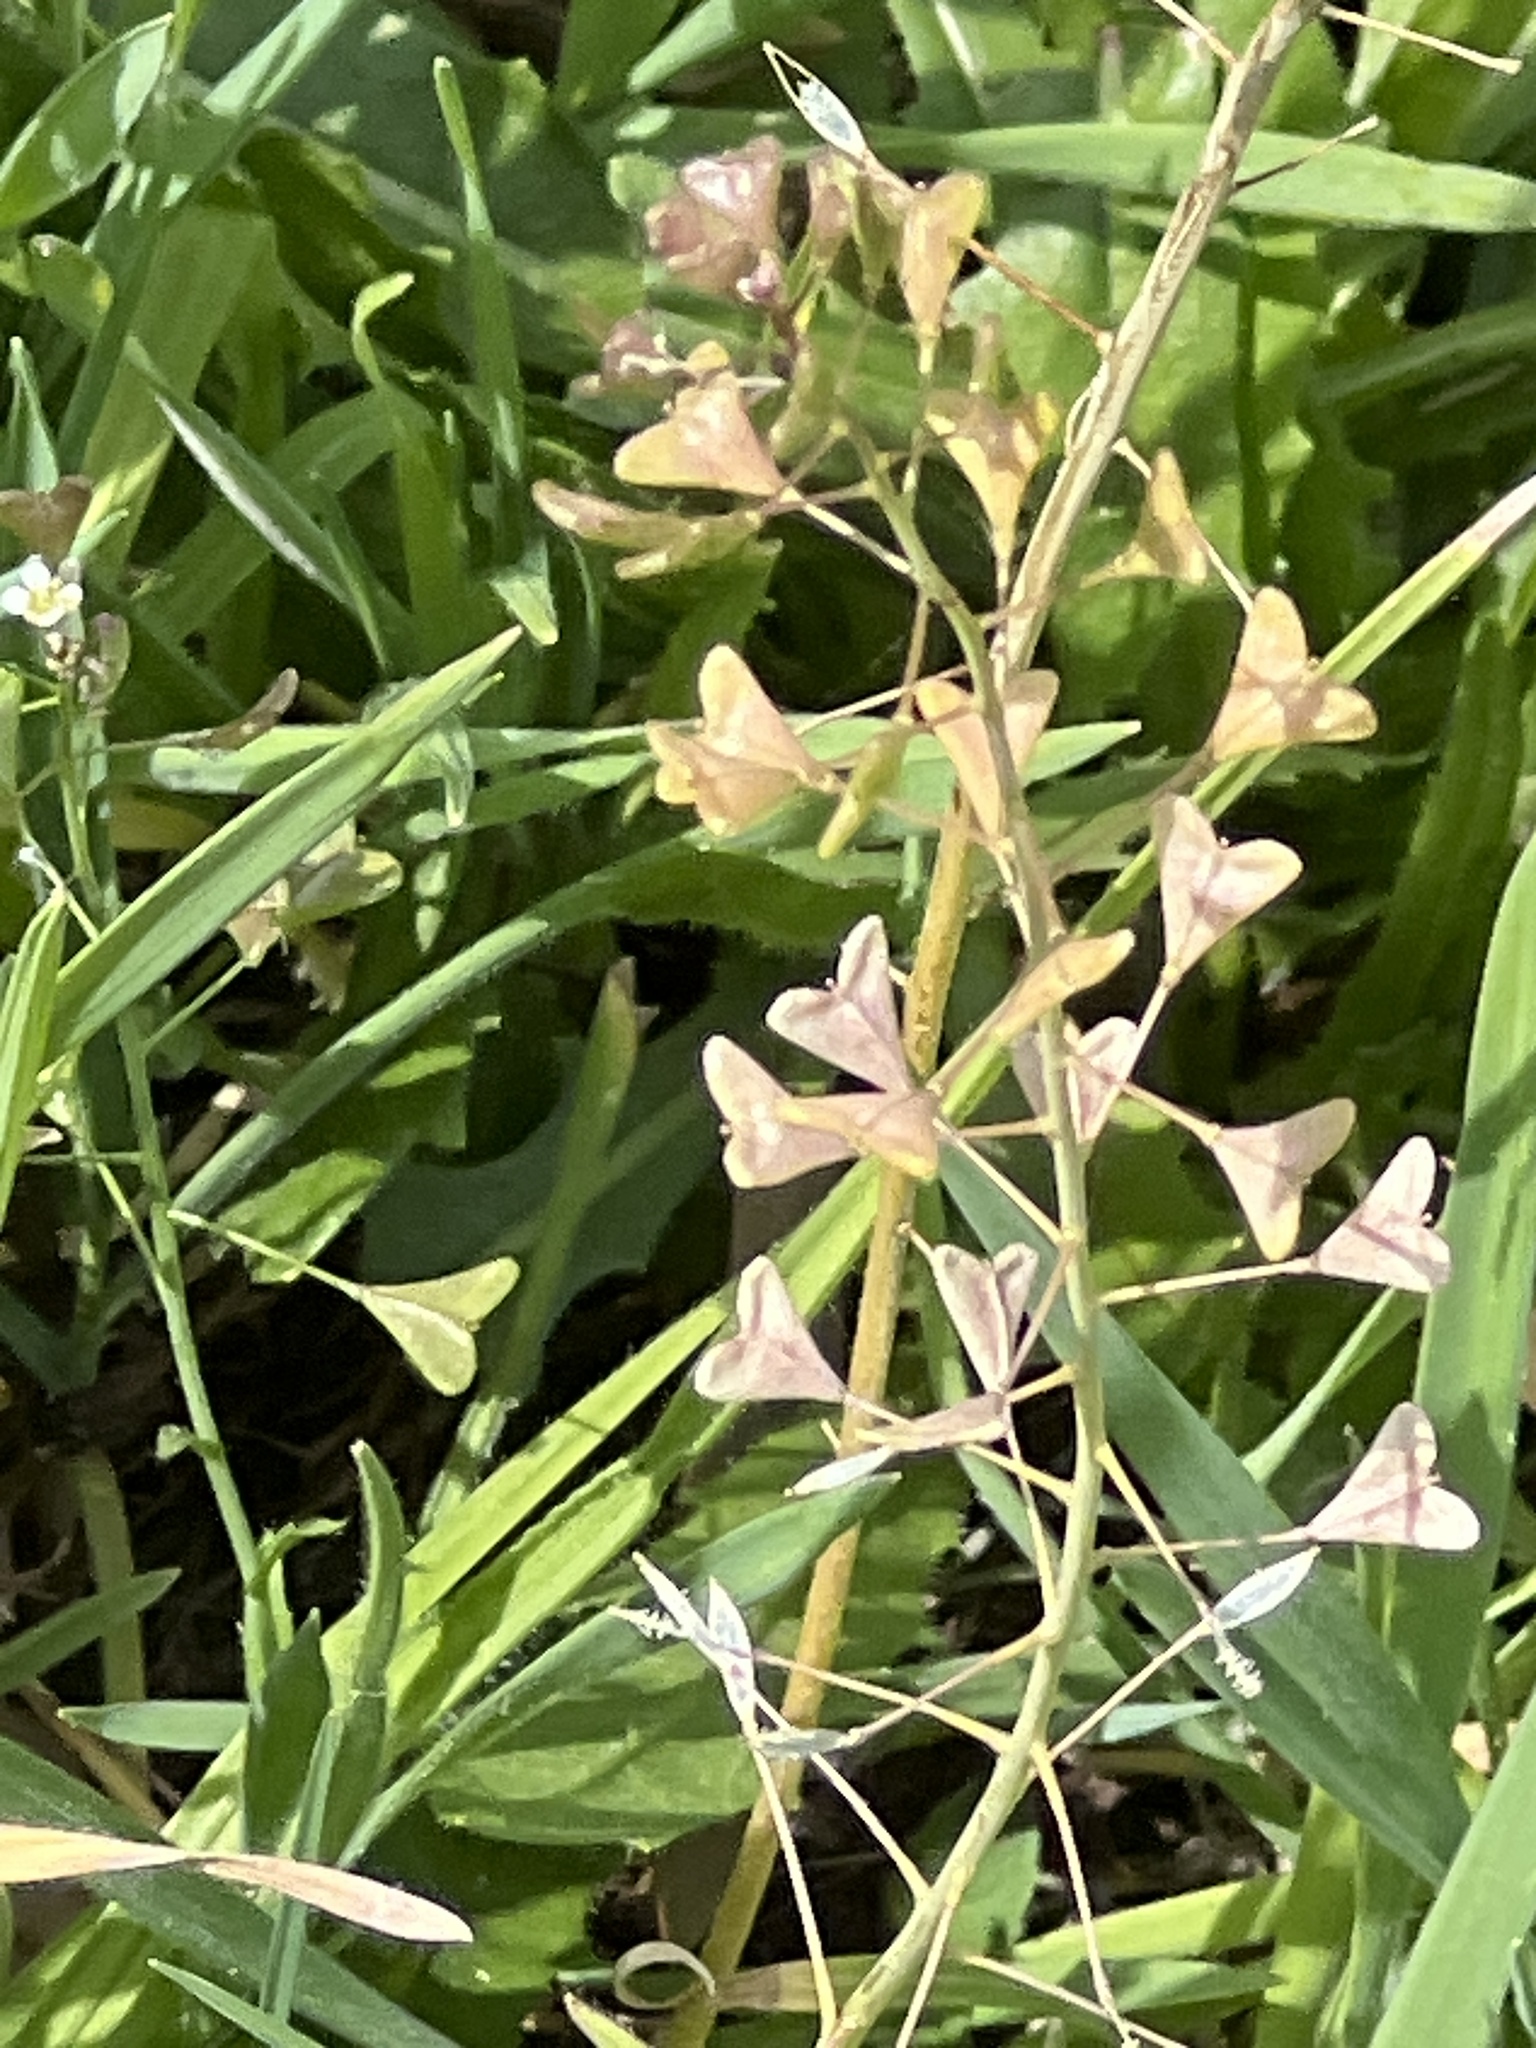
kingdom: Plantae
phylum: Tracheophyta
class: Magnoliopsida
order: Brassicales
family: Brassicaceae
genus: Capsella
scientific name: Capsella bursa-pastoris
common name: Shepherd's purse
